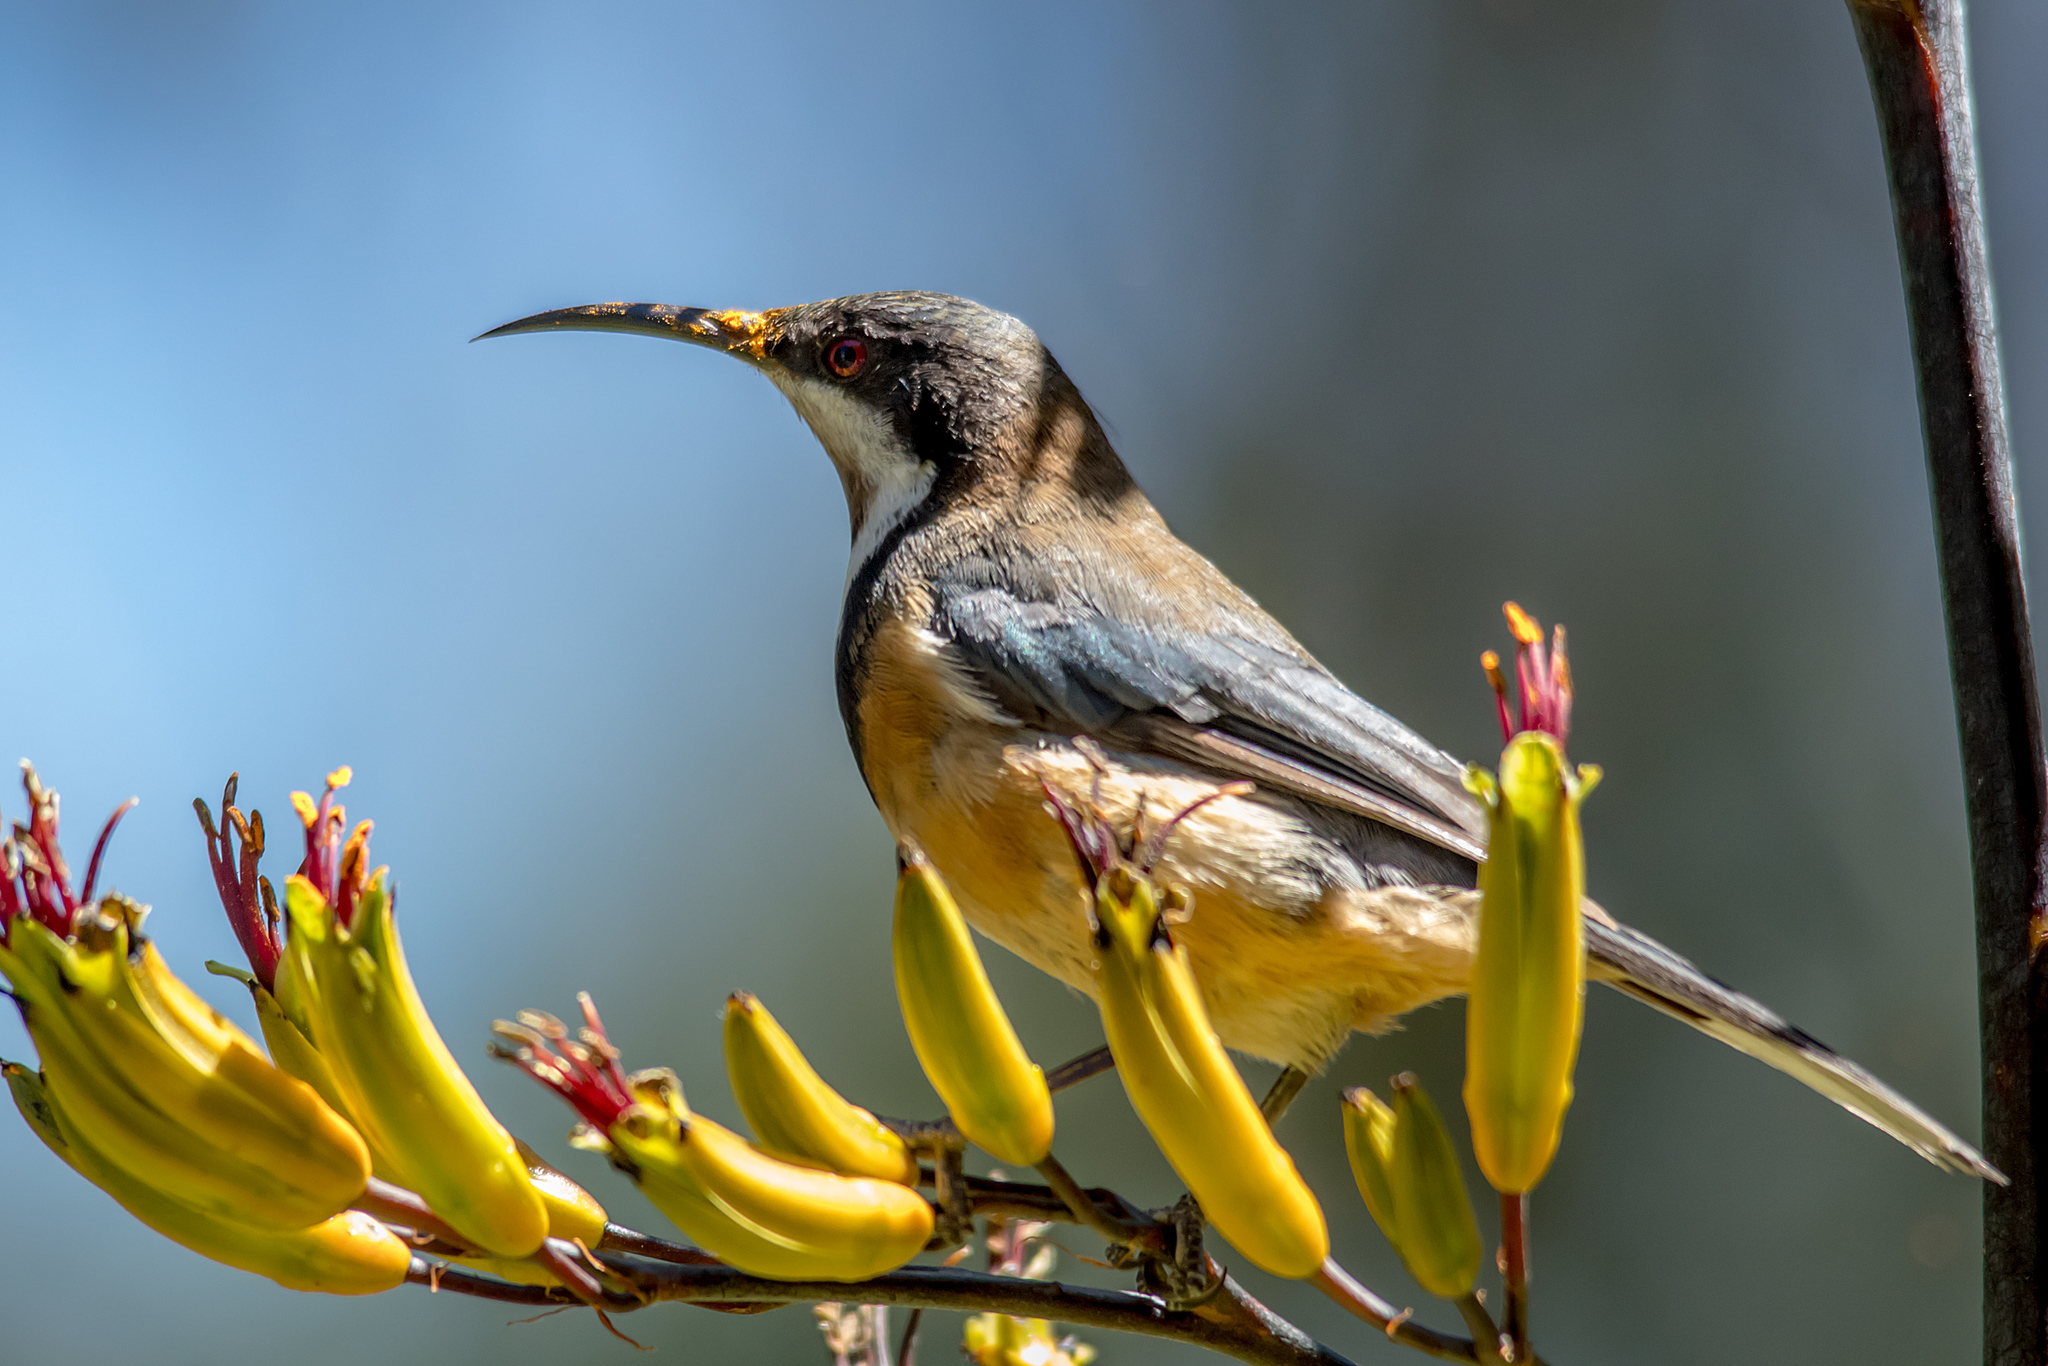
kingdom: Animalia
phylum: Chordata
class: Aves
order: Passeriformes
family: Meliphagidae
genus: Acanthorhynchus
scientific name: Acanthorhynchus tenuirostris
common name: Eastern spinebill
